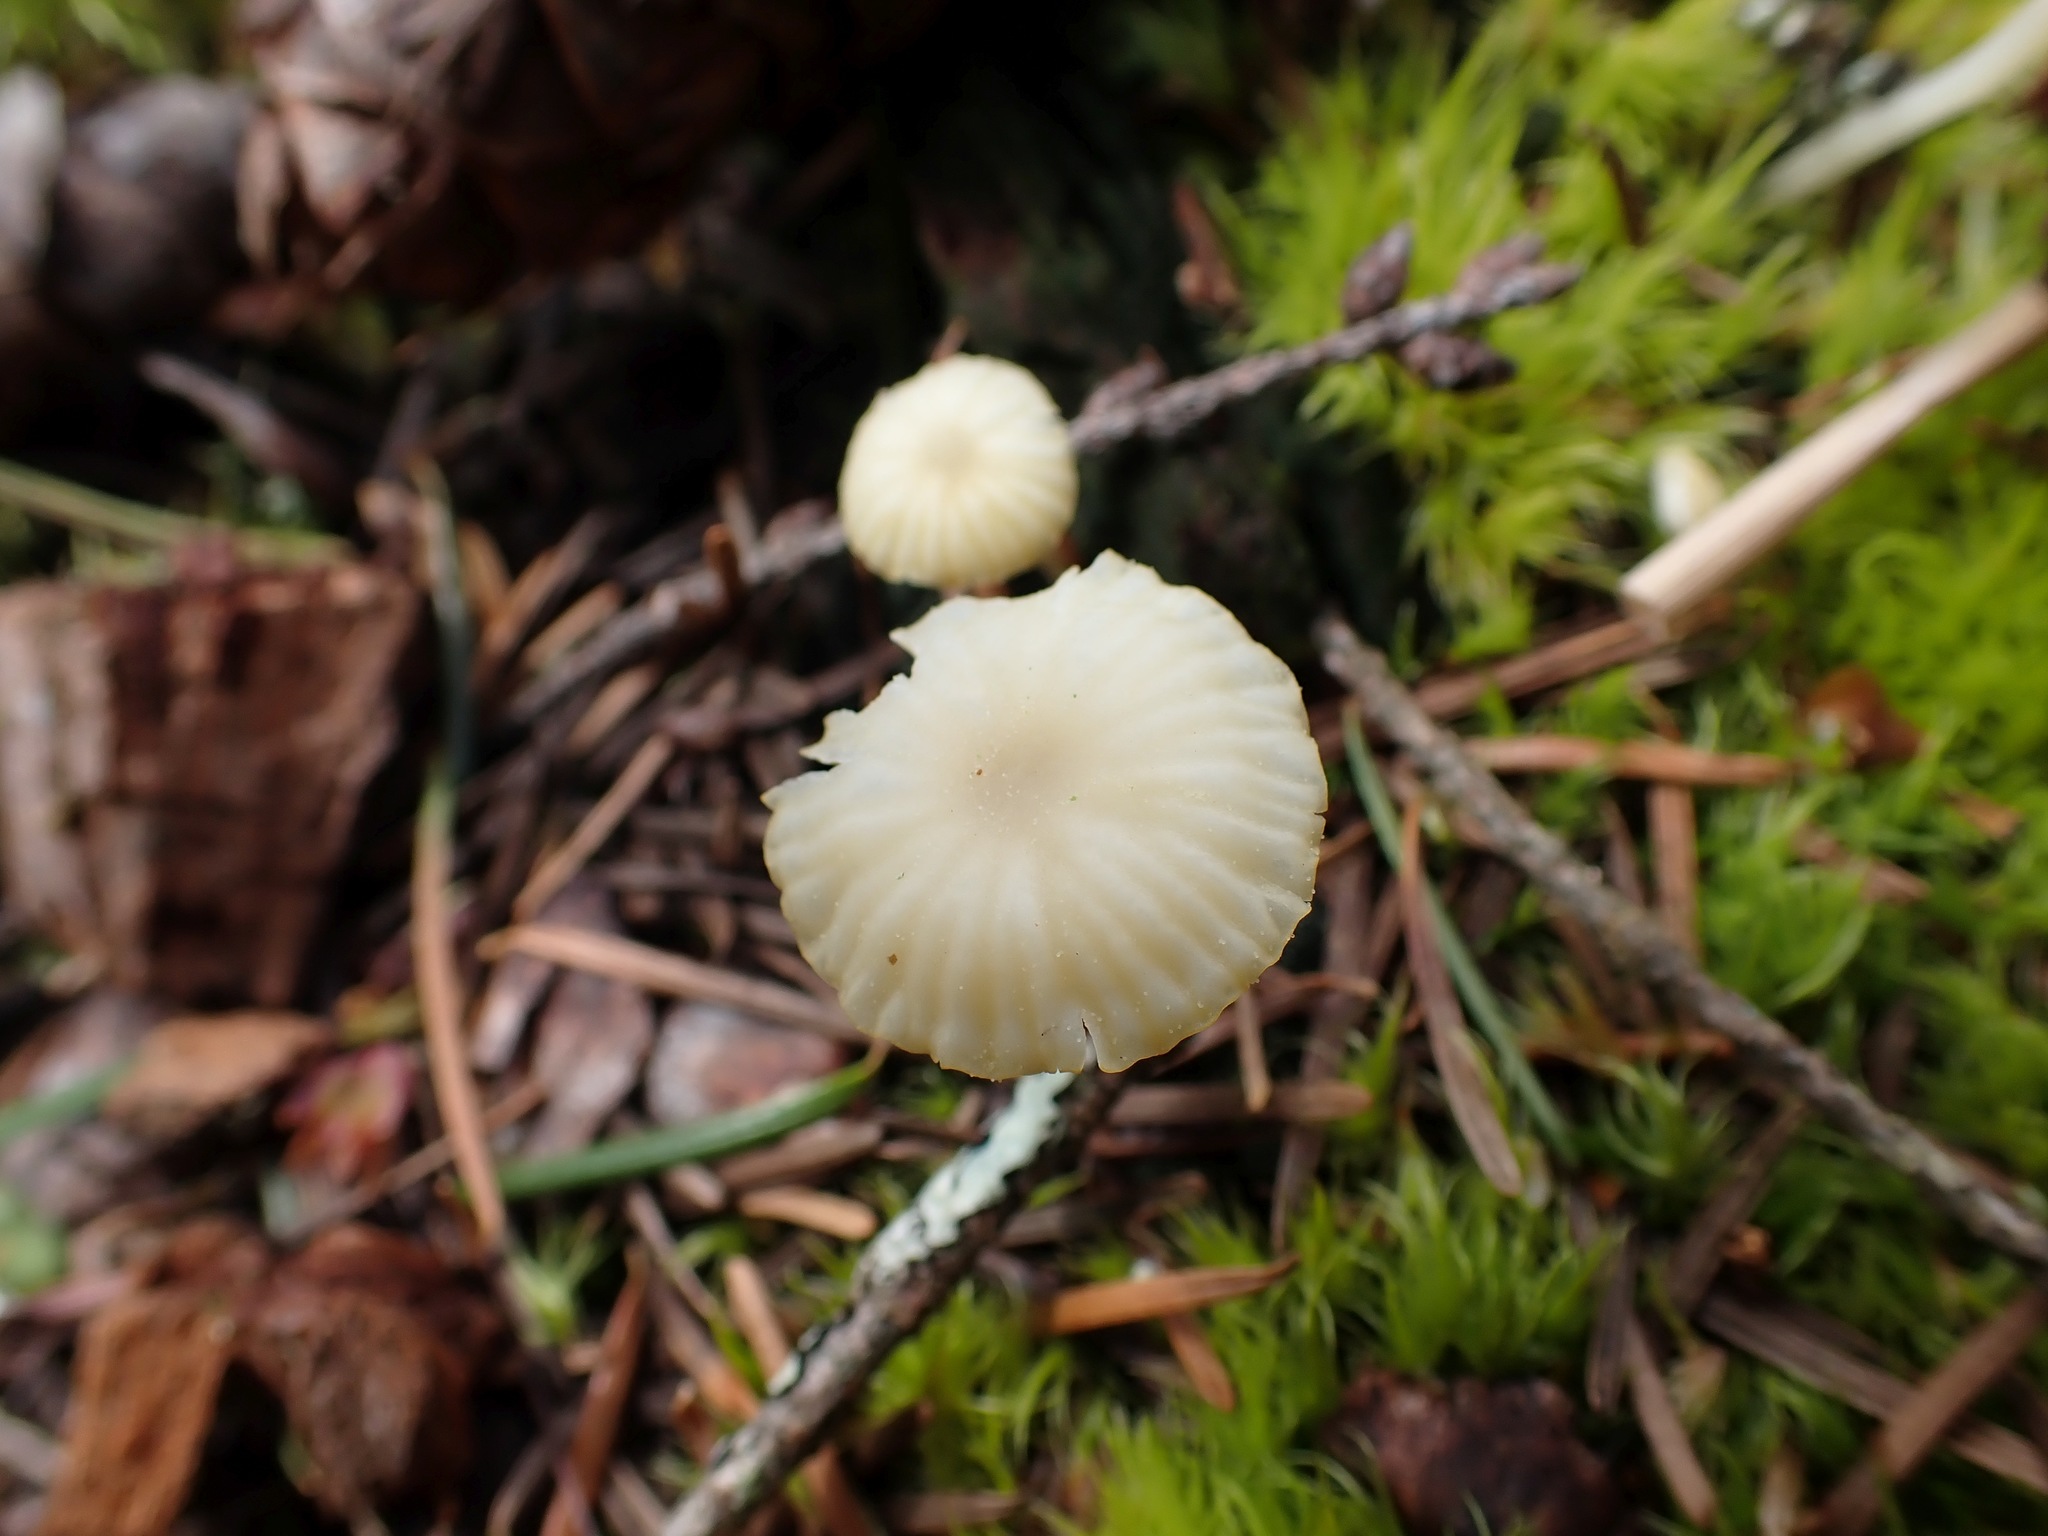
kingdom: Fungi
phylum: Basidiomycota
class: Agaricomycetes
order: Agaricales
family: Hygrophoraceae
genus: Lichenomphalia
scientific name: Lichenomphalia
